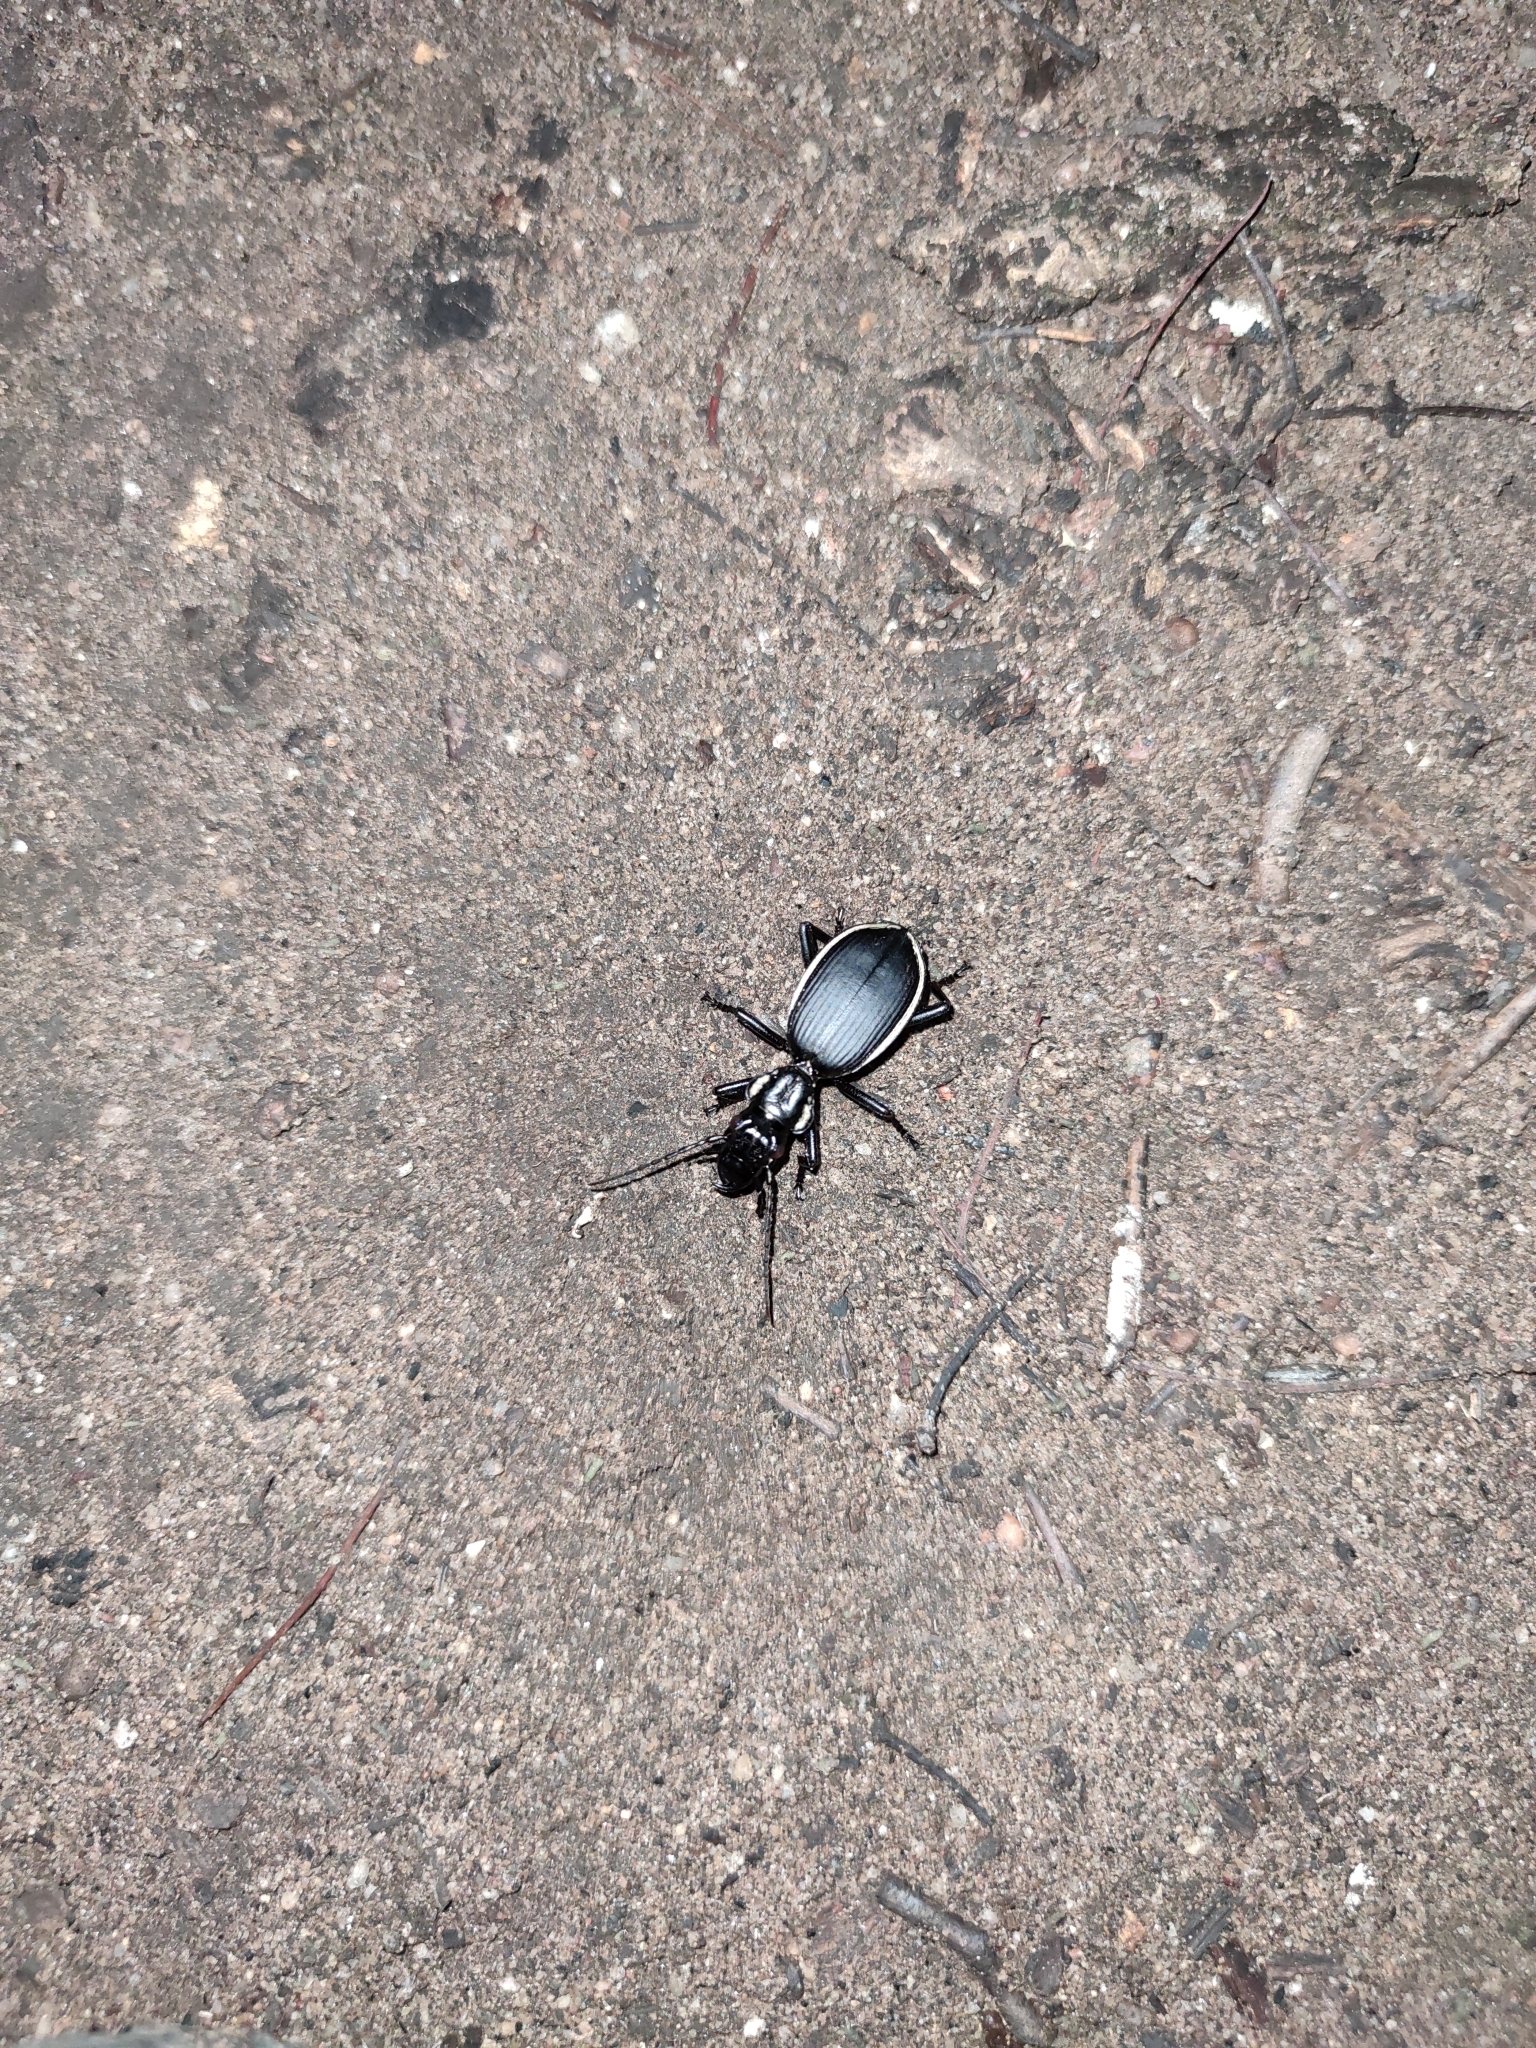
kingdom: Animalia
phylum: Arthropoda
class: Insecta
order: Coleoptera
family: Carabidae
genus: Anthia
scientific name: Anthia circumscripta
